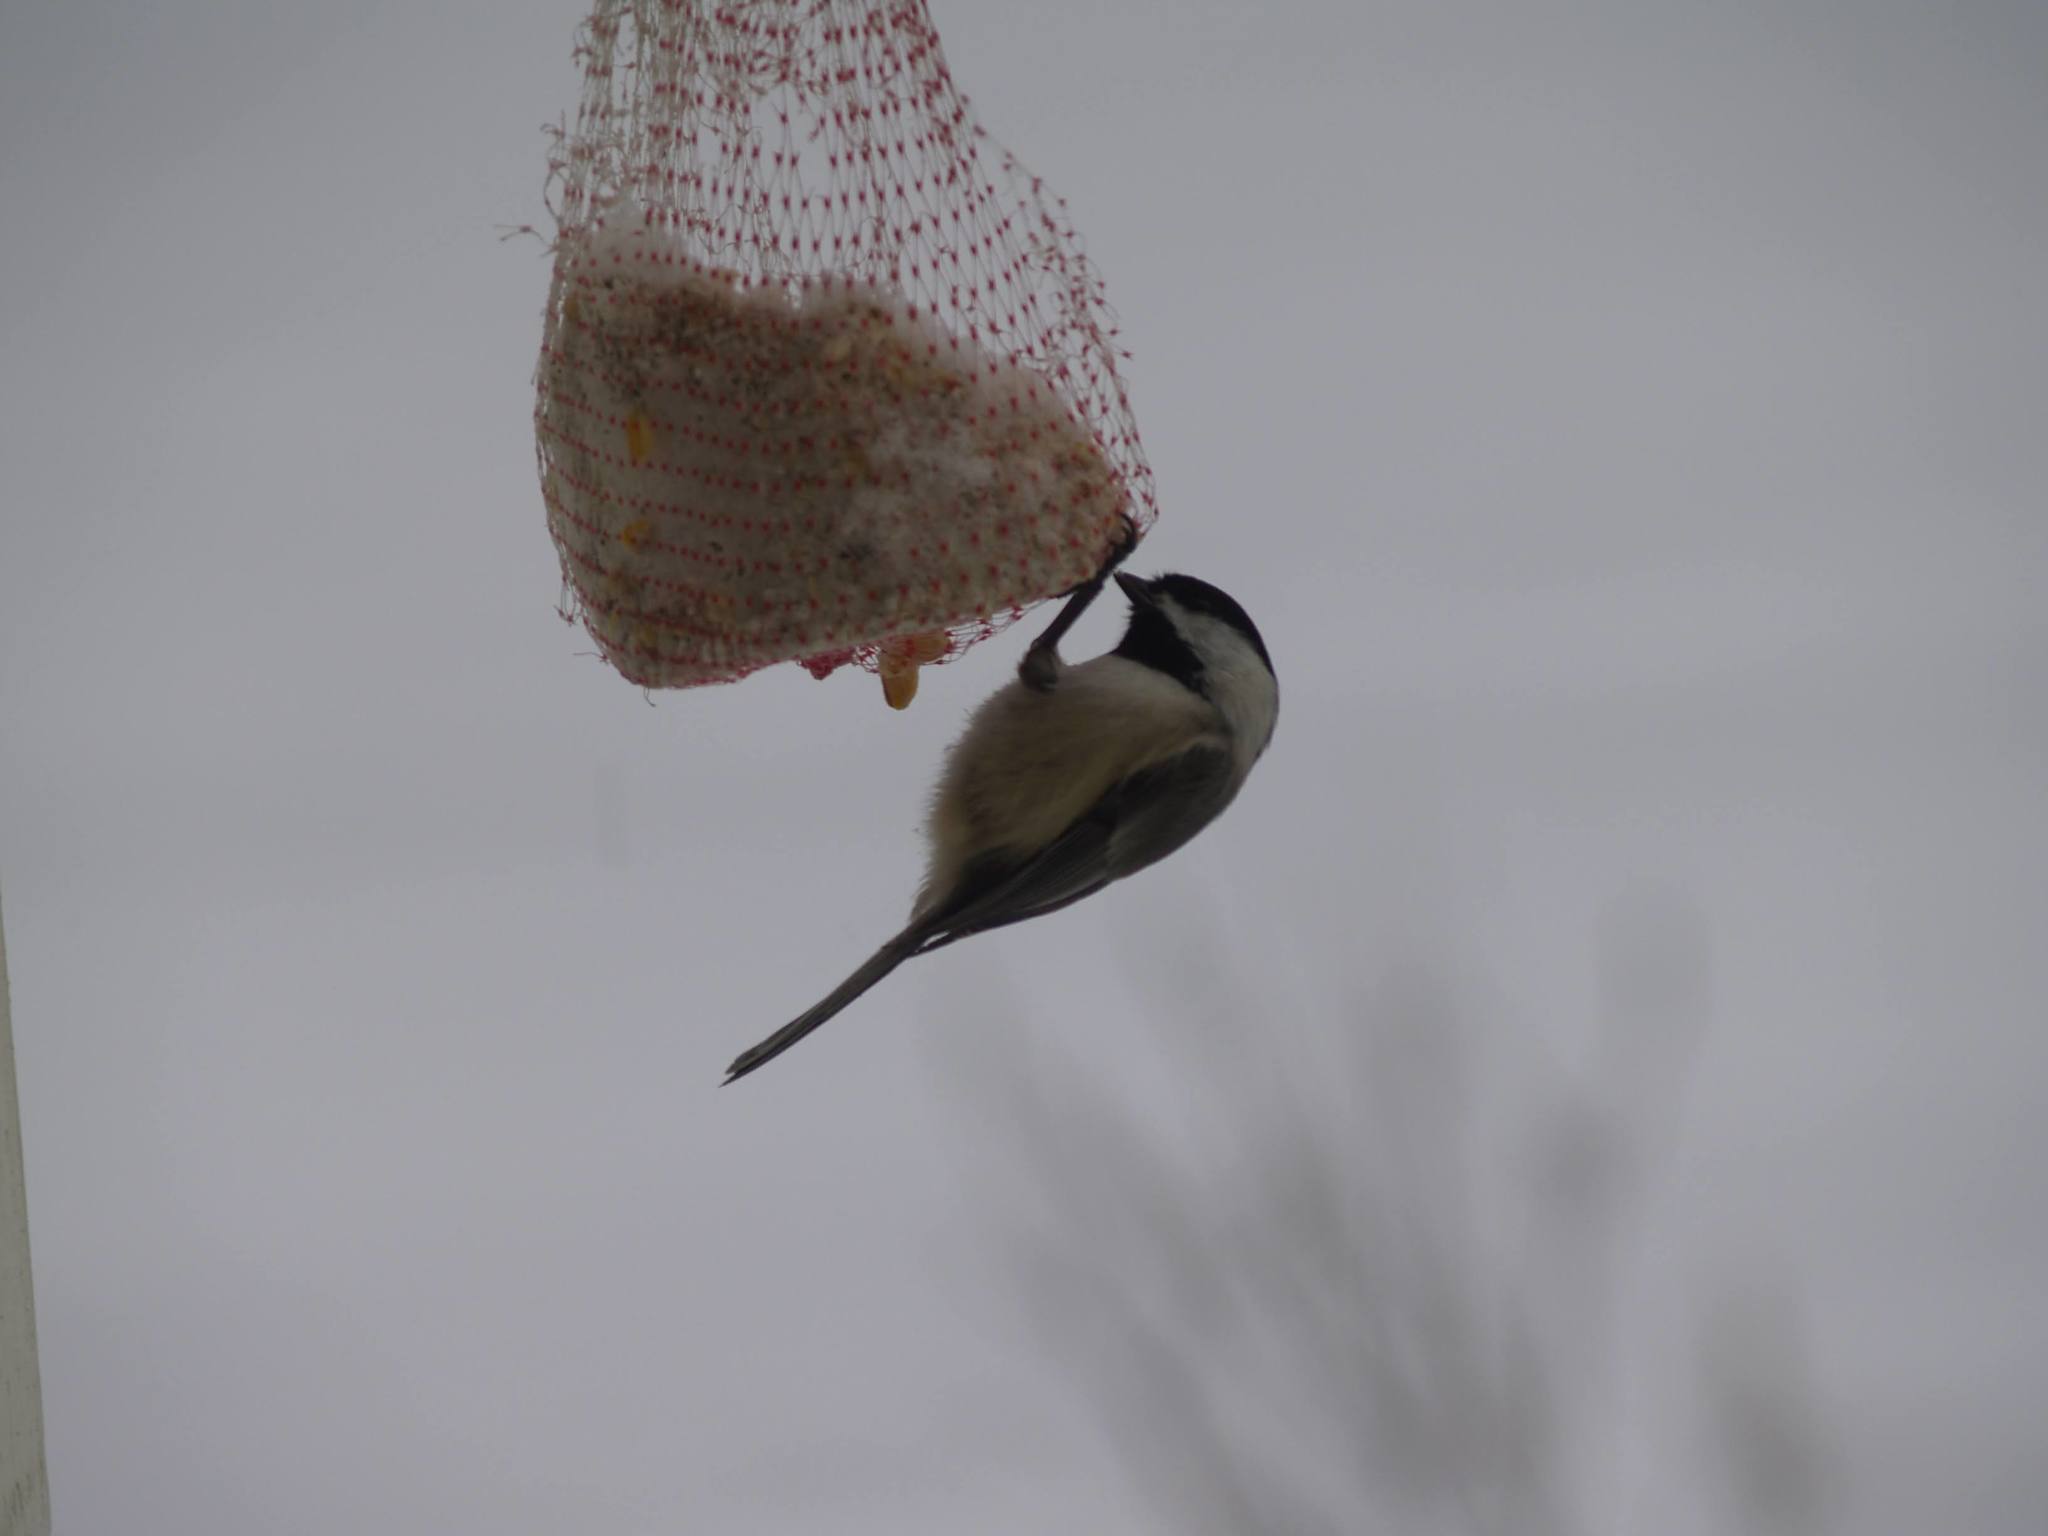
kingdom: Animalia
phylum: Chordata
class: Aves
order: Passeriformes
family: Paridae
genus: Poecile
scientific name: Poecile atricapillus
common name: Black-capped chickadee
